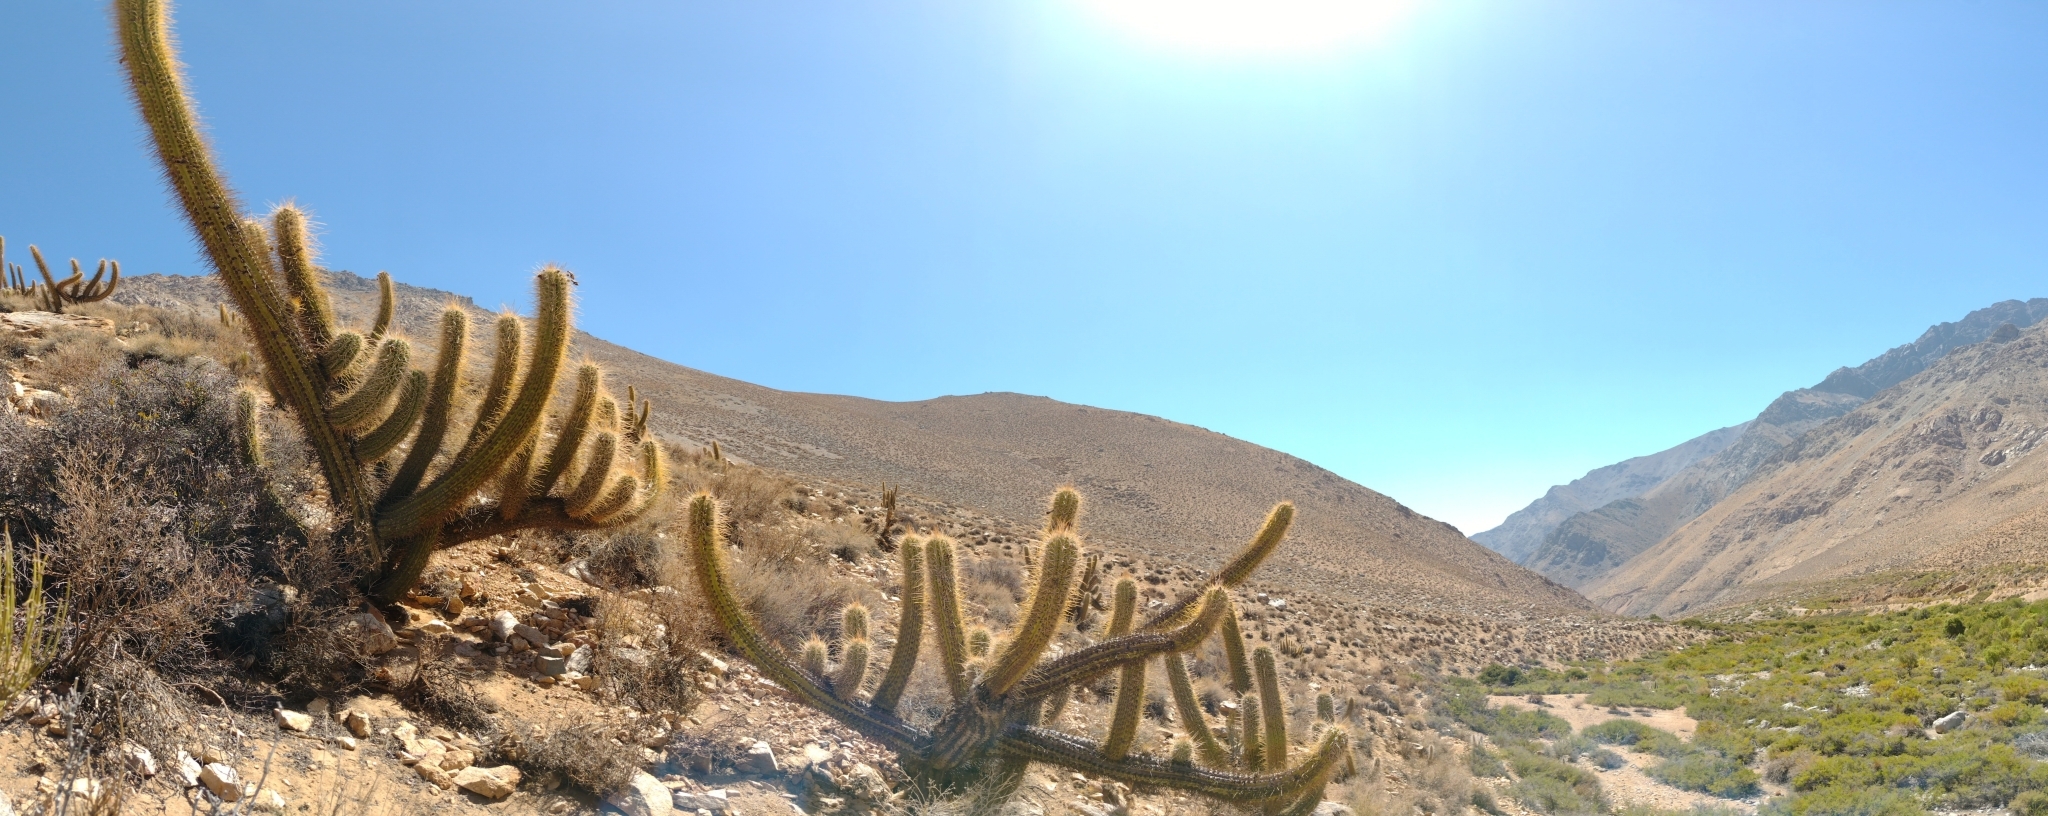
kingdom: Plantae
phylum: Tracheophyta
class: Magnoliopsida
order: Caryophyllales
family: Cactaceae
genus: Leucostele
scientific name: Leucostele chiloensis
